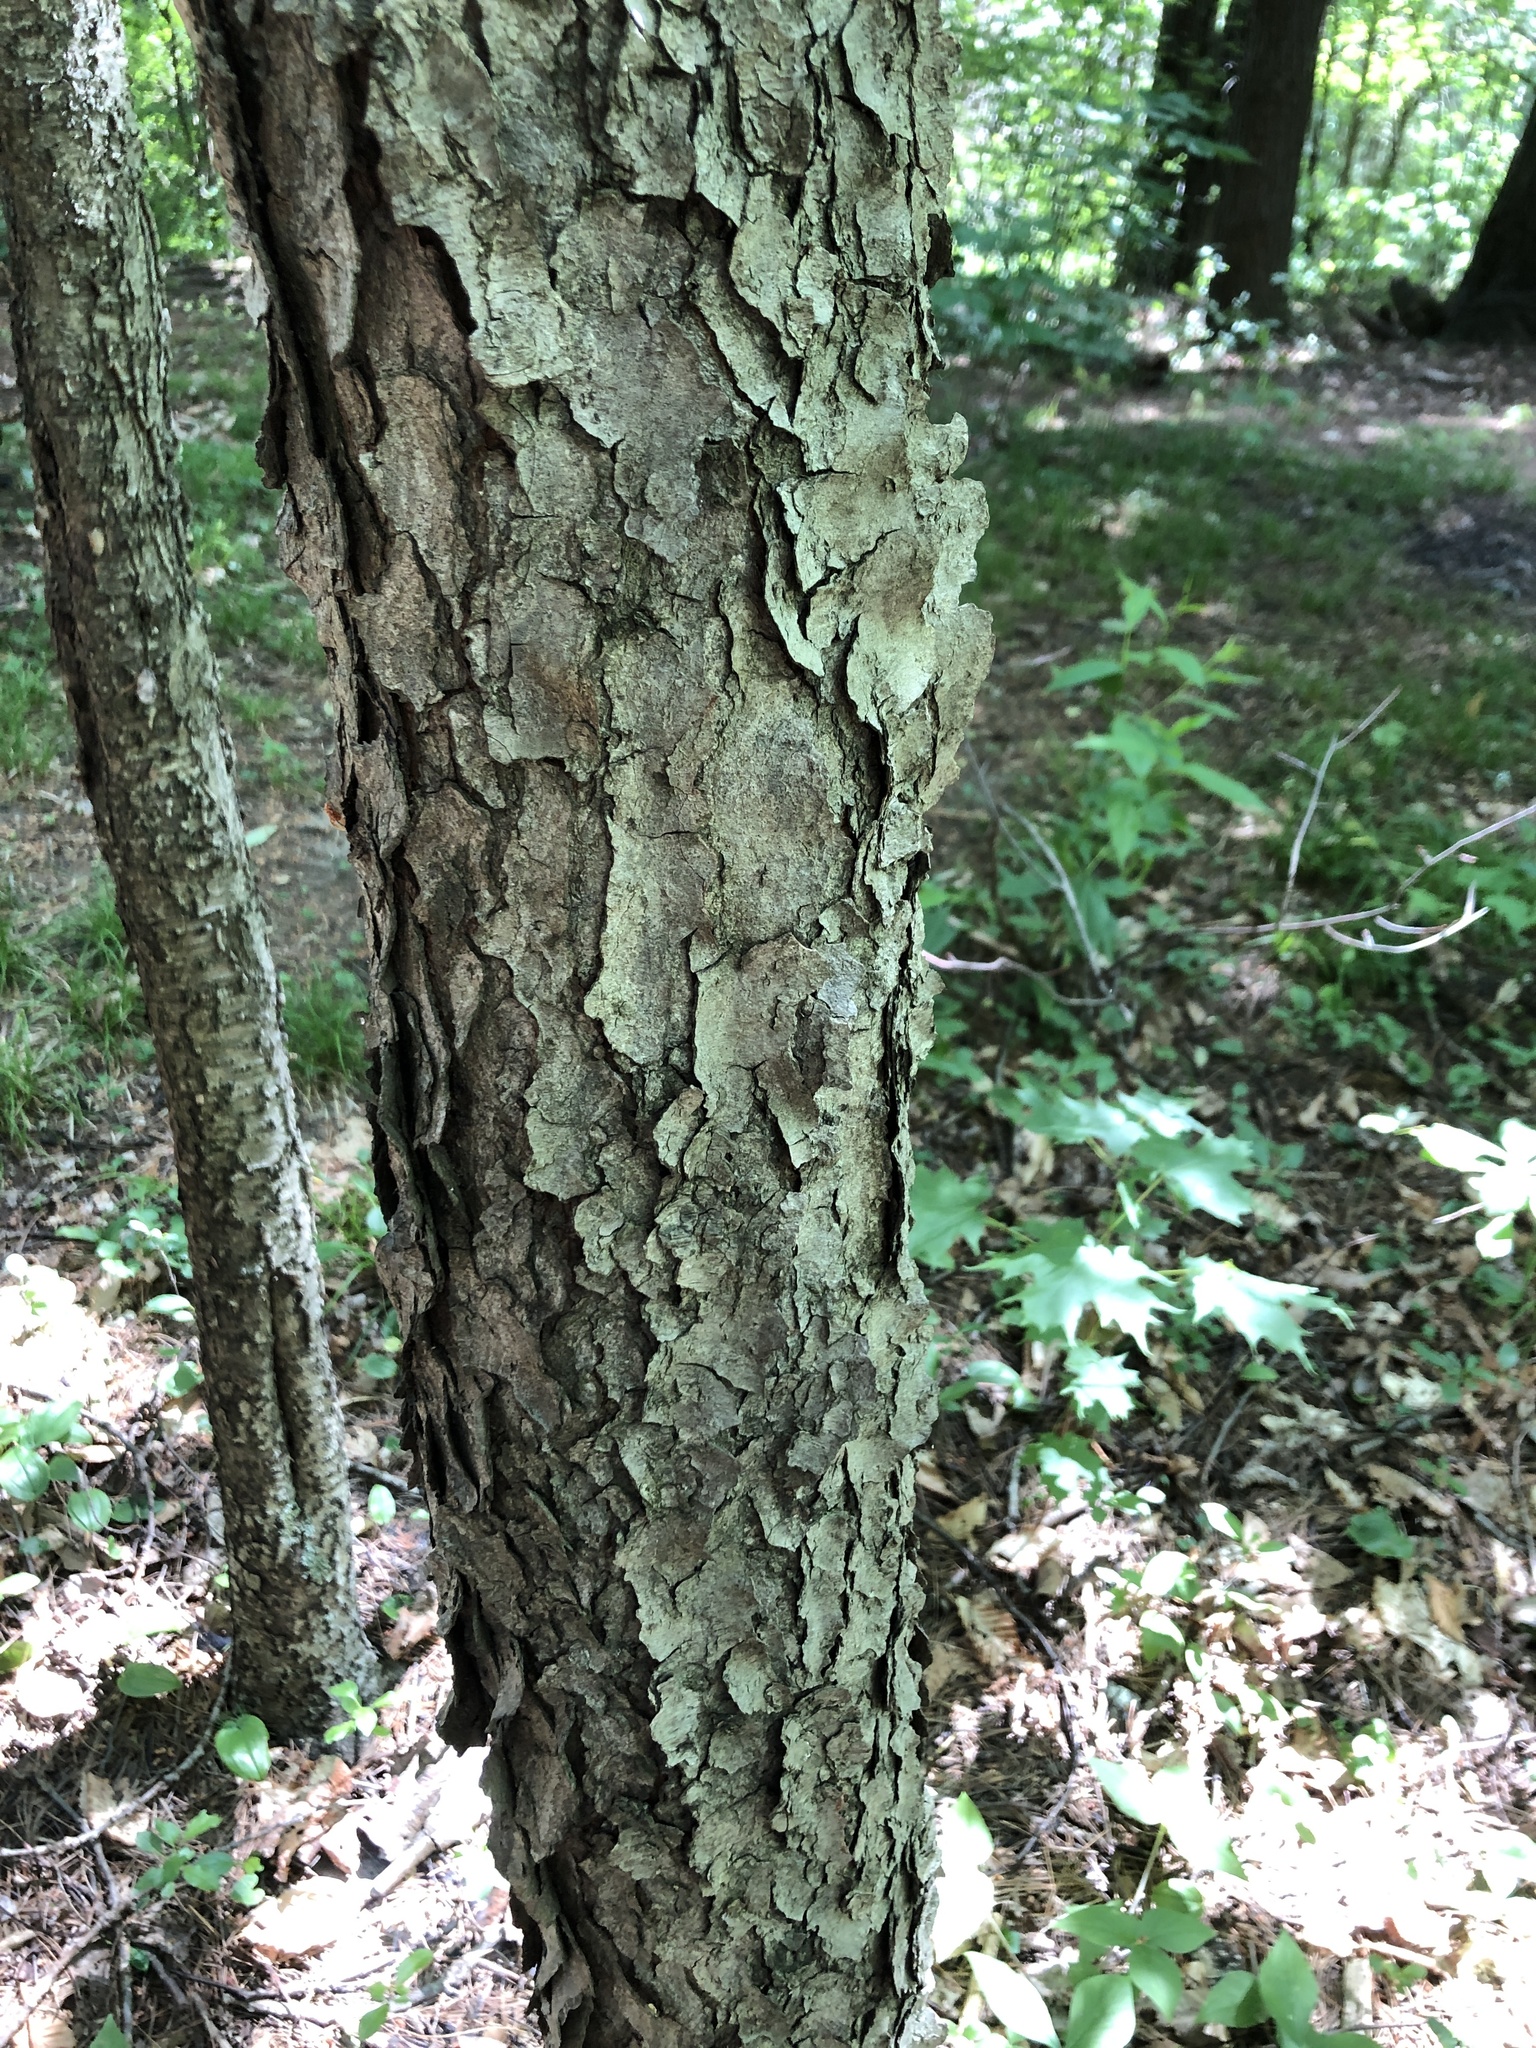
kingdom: Plantae
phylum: Tracheophyta
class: Magnoliopsida
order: Rosales
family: Rosaceae
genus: Prunus
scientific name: Prunus serotina
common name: Black cherry
